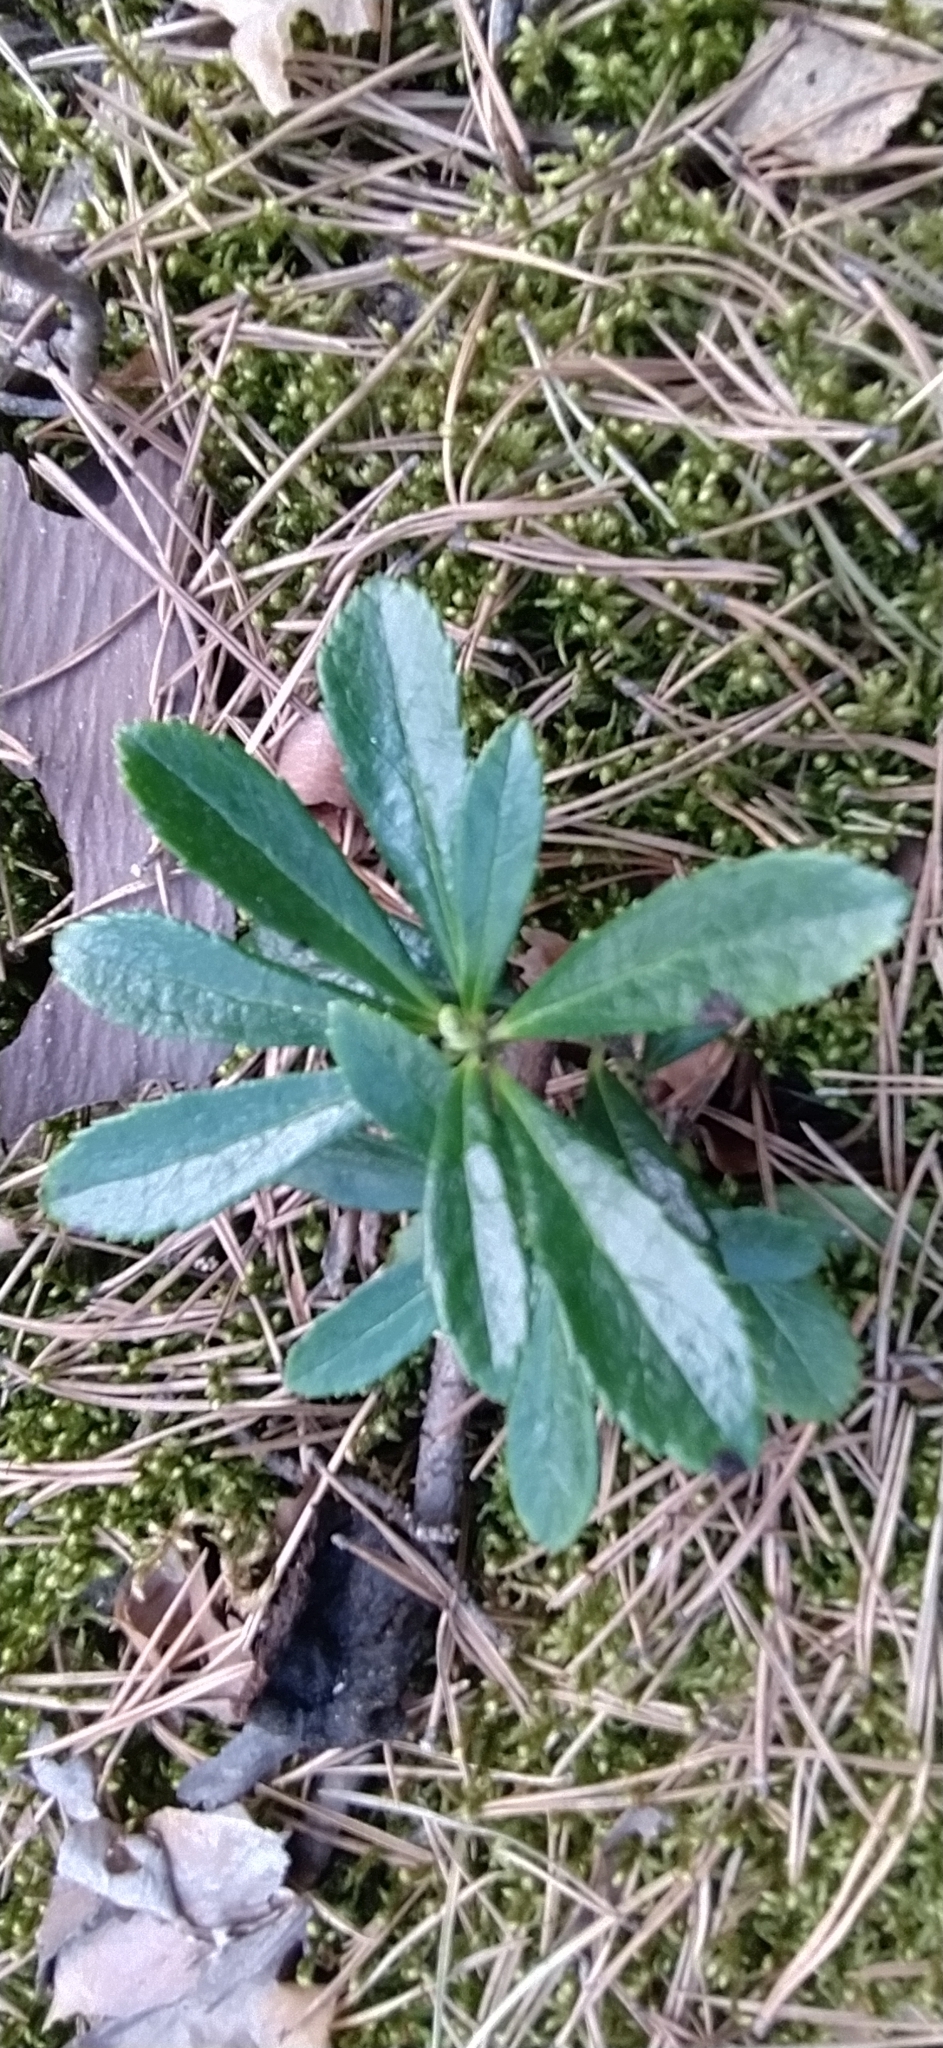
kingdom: Plantae
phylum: Tracheophyta
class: Magnoliopsida
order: Ericales
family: Ericaceae
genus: Chimaphila
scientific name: Chimaphila umbellata
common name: Pipsissewa
